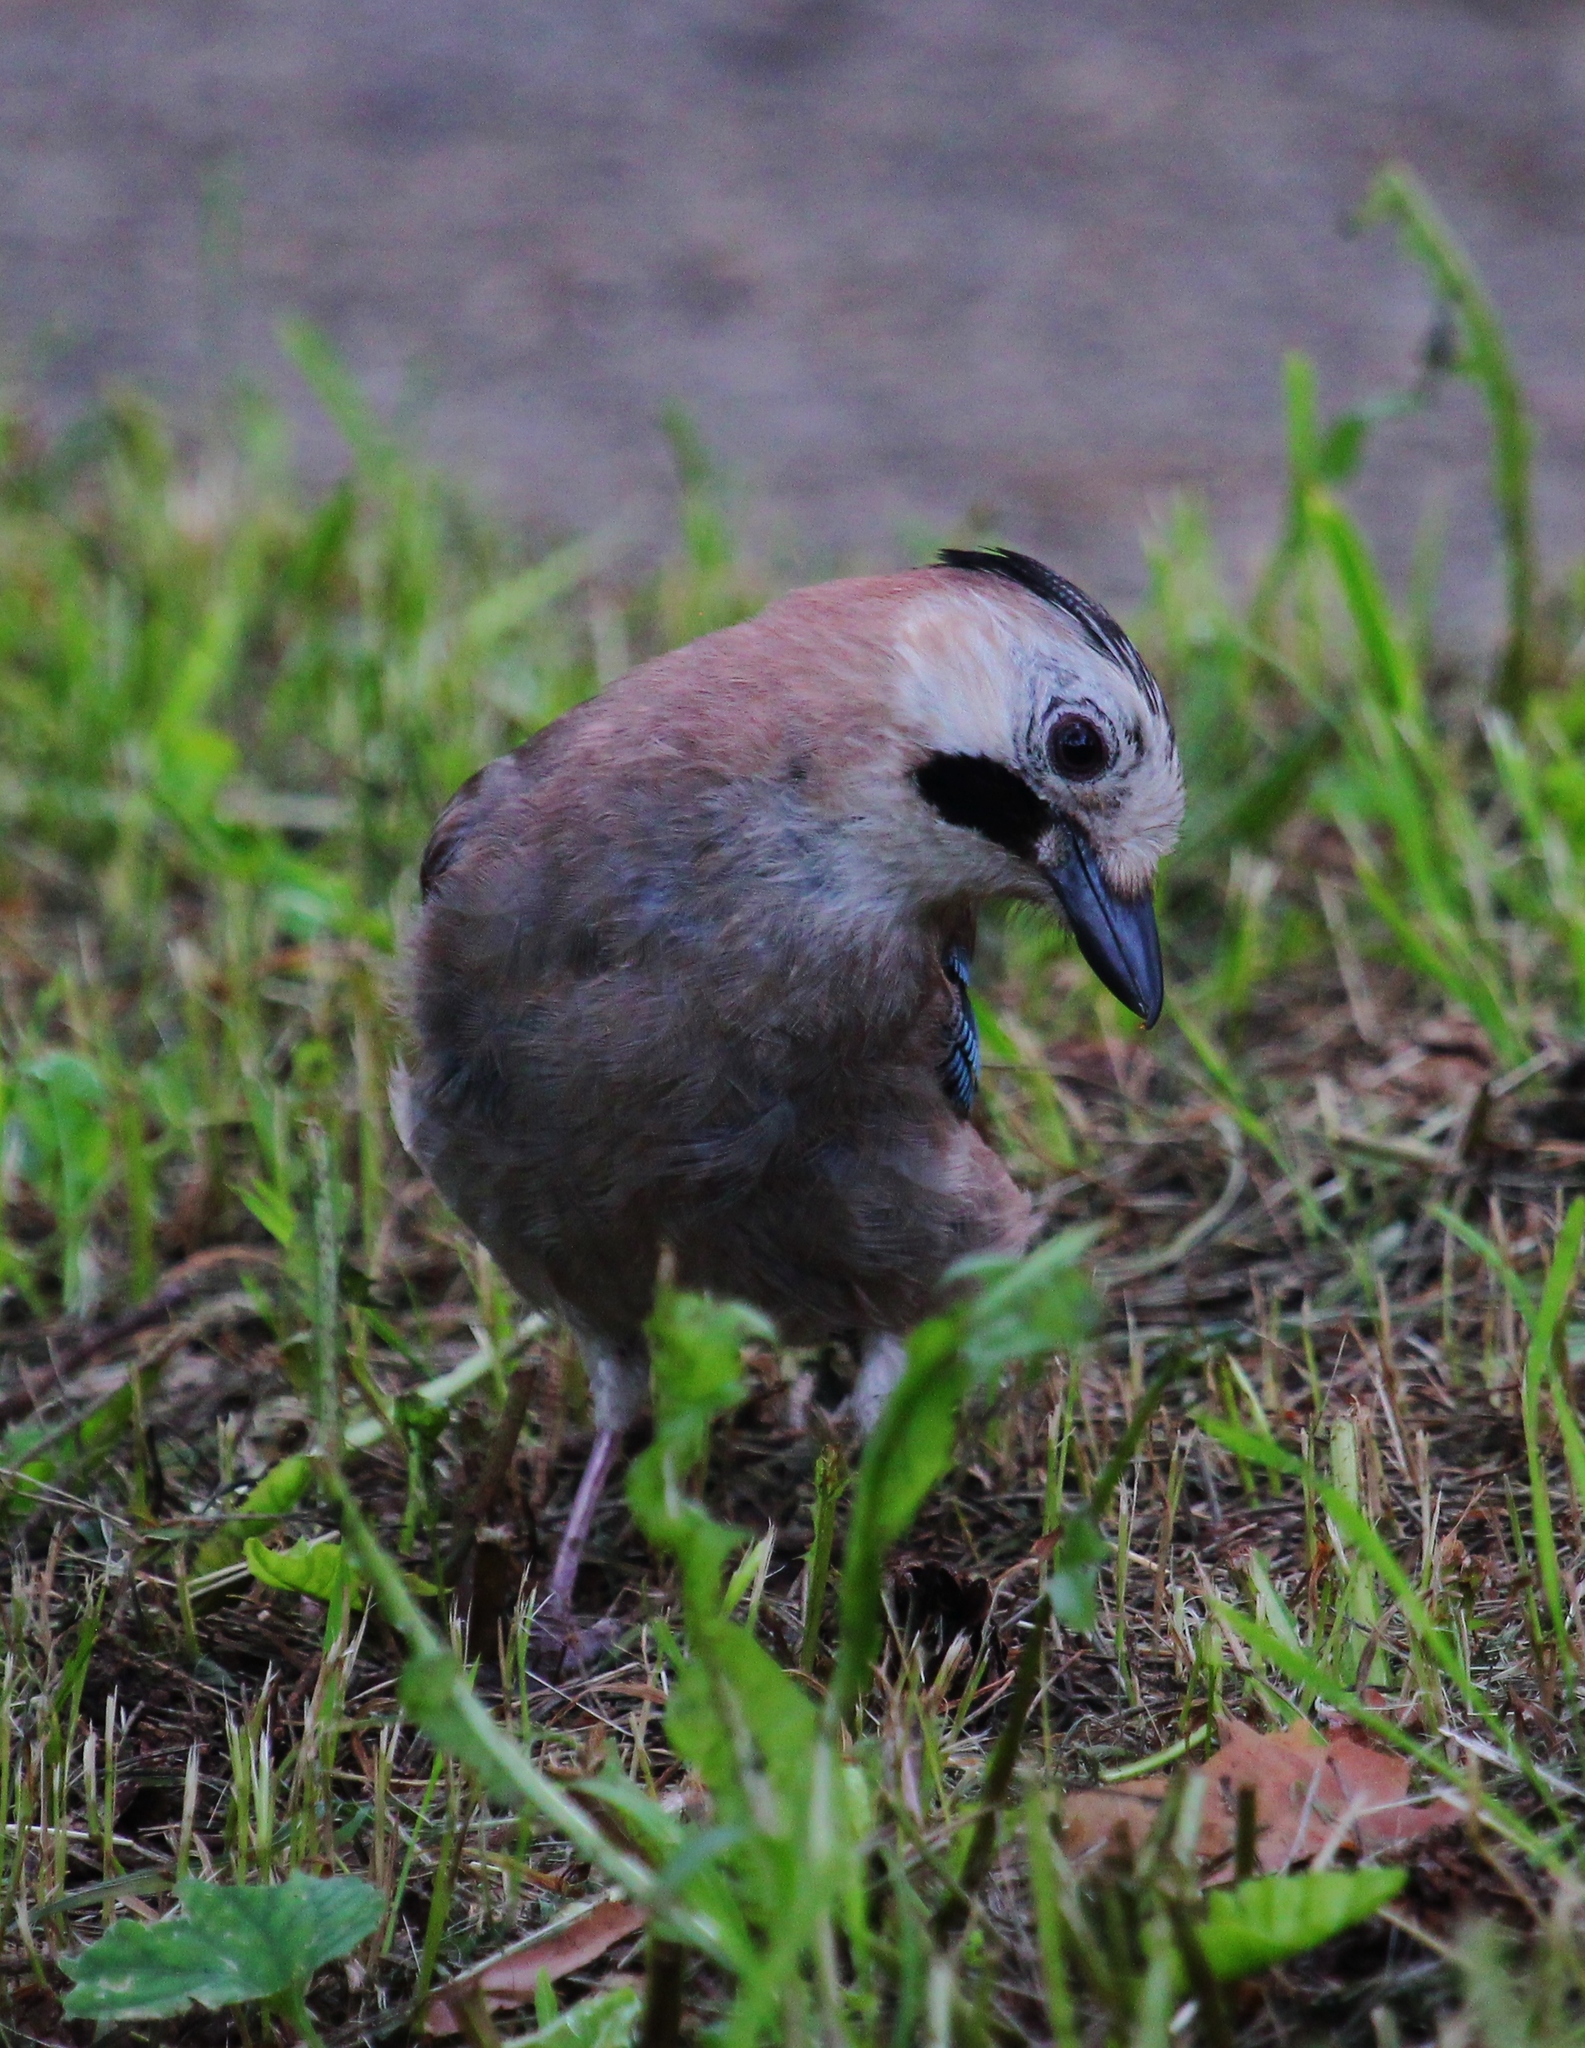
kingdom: Animalia
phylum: Chordata
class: Aves
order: Passeriformes
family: Corvidae
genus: Garrulus
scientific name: Garrulus glandarius
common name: Eurasian jay
